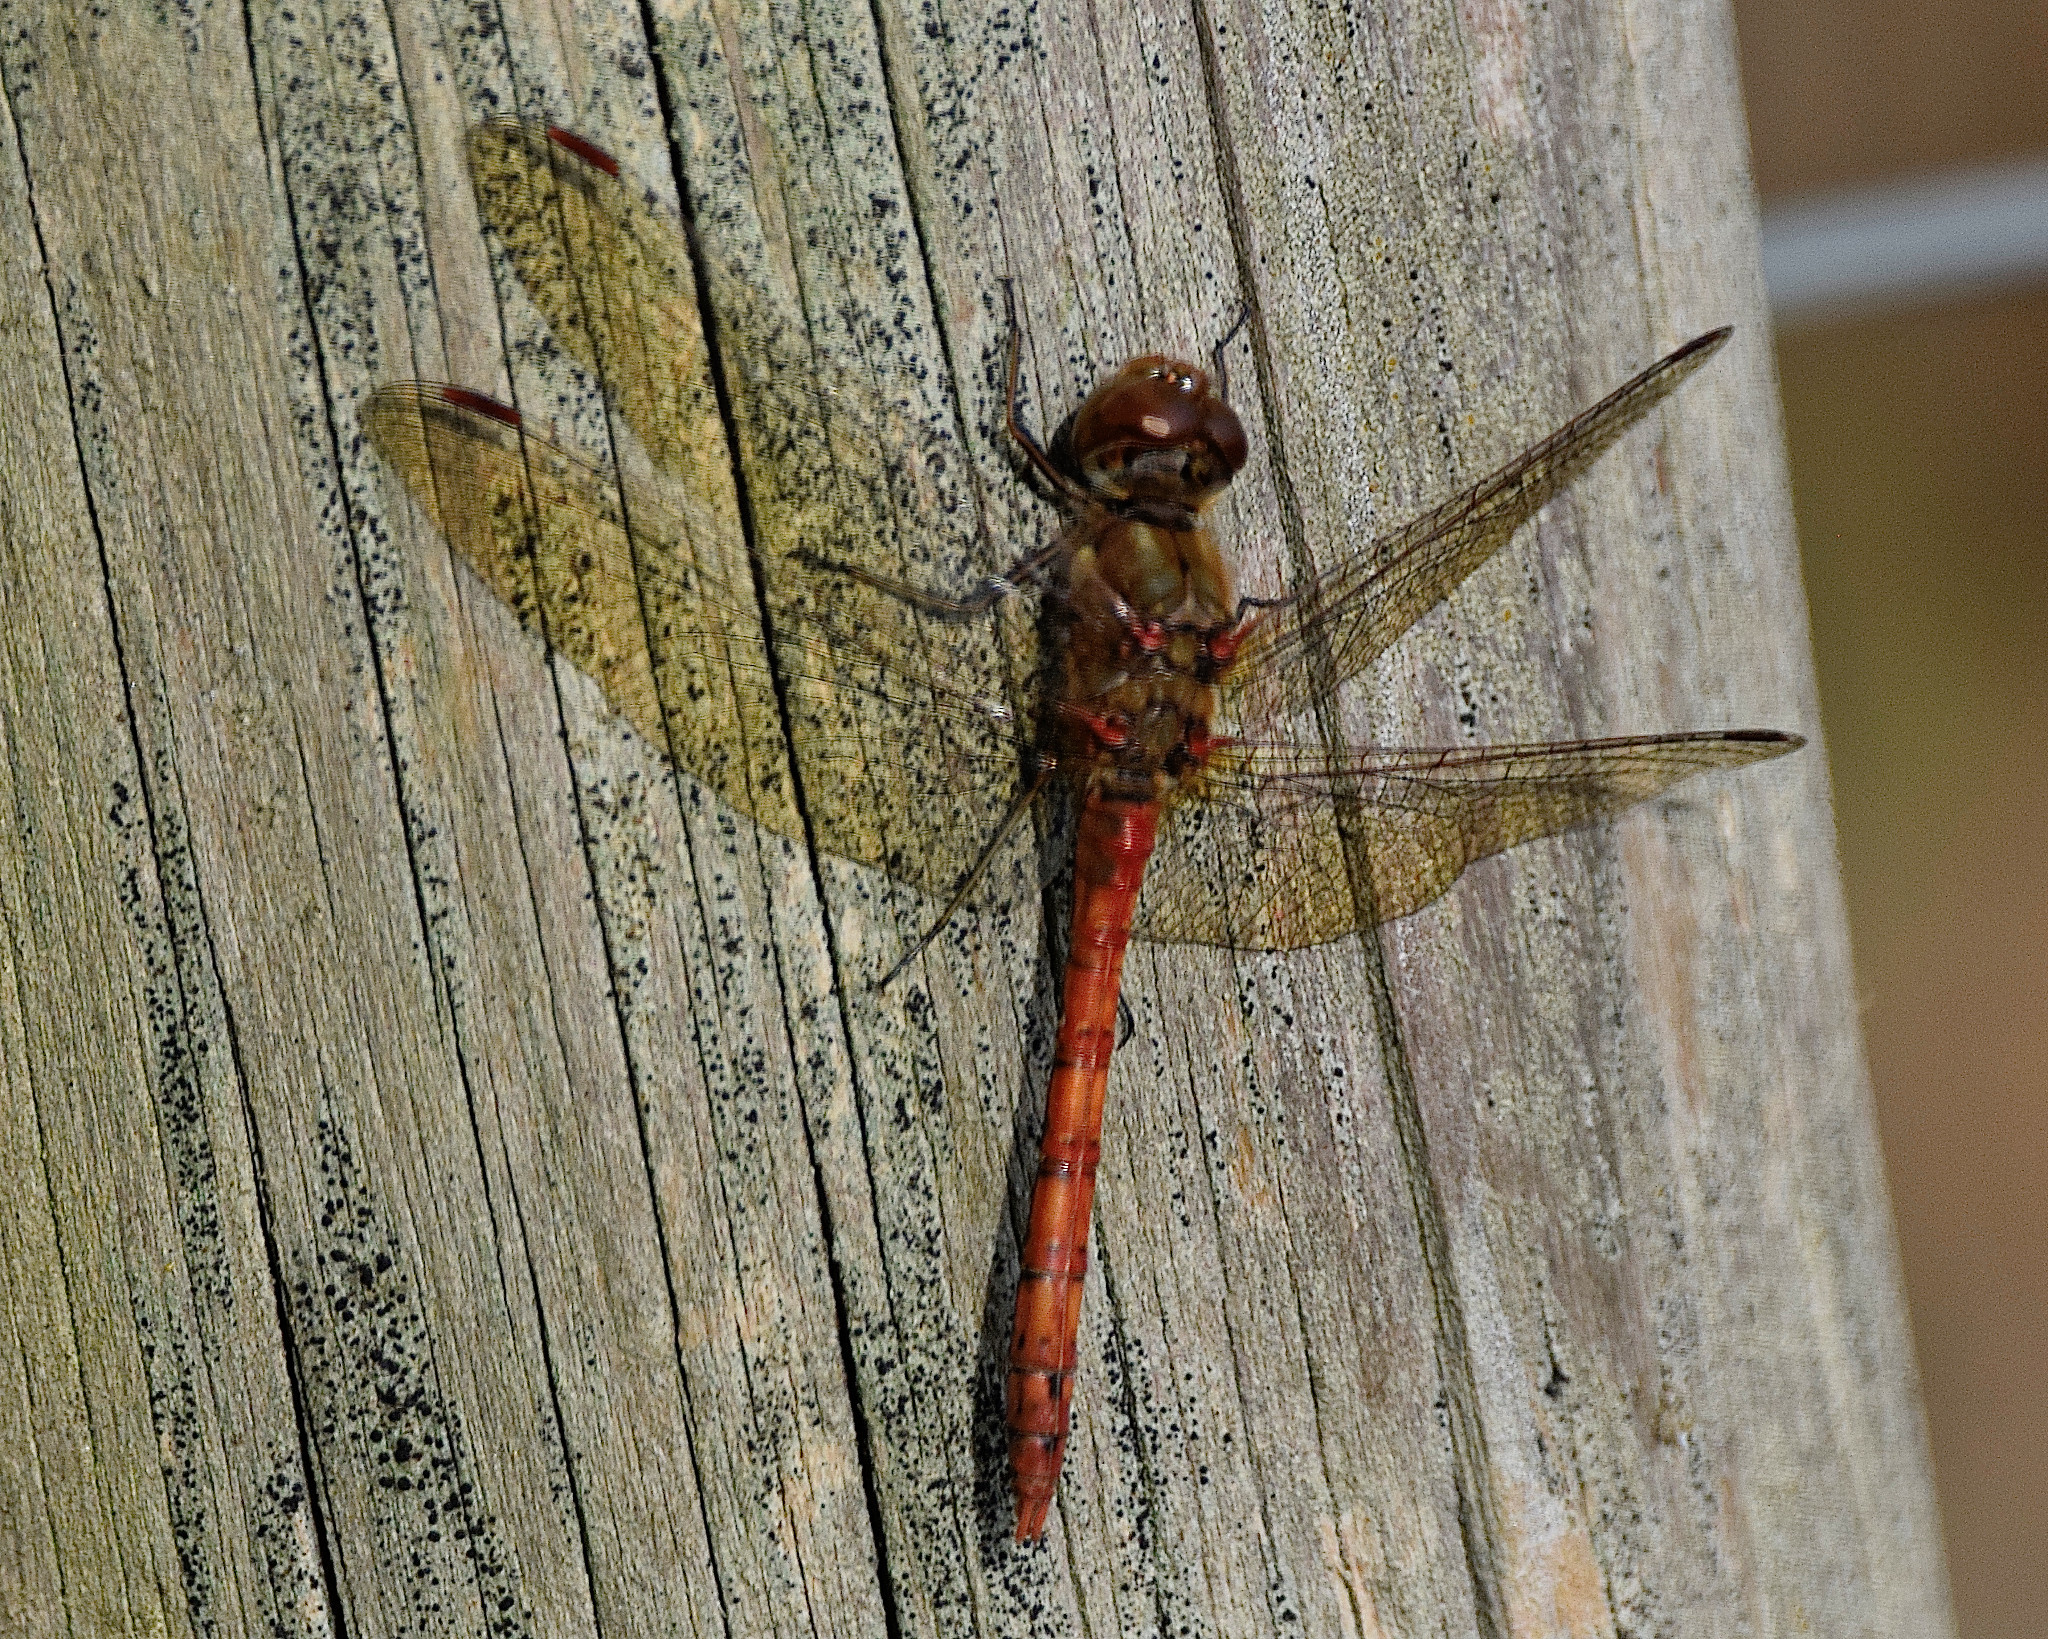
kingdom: Animalia
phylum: Arthropoda
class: Insecta
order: Odonata
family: Libellulidae
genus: Sympetrum
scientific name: Sympetrum striolatum
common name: Common darter
